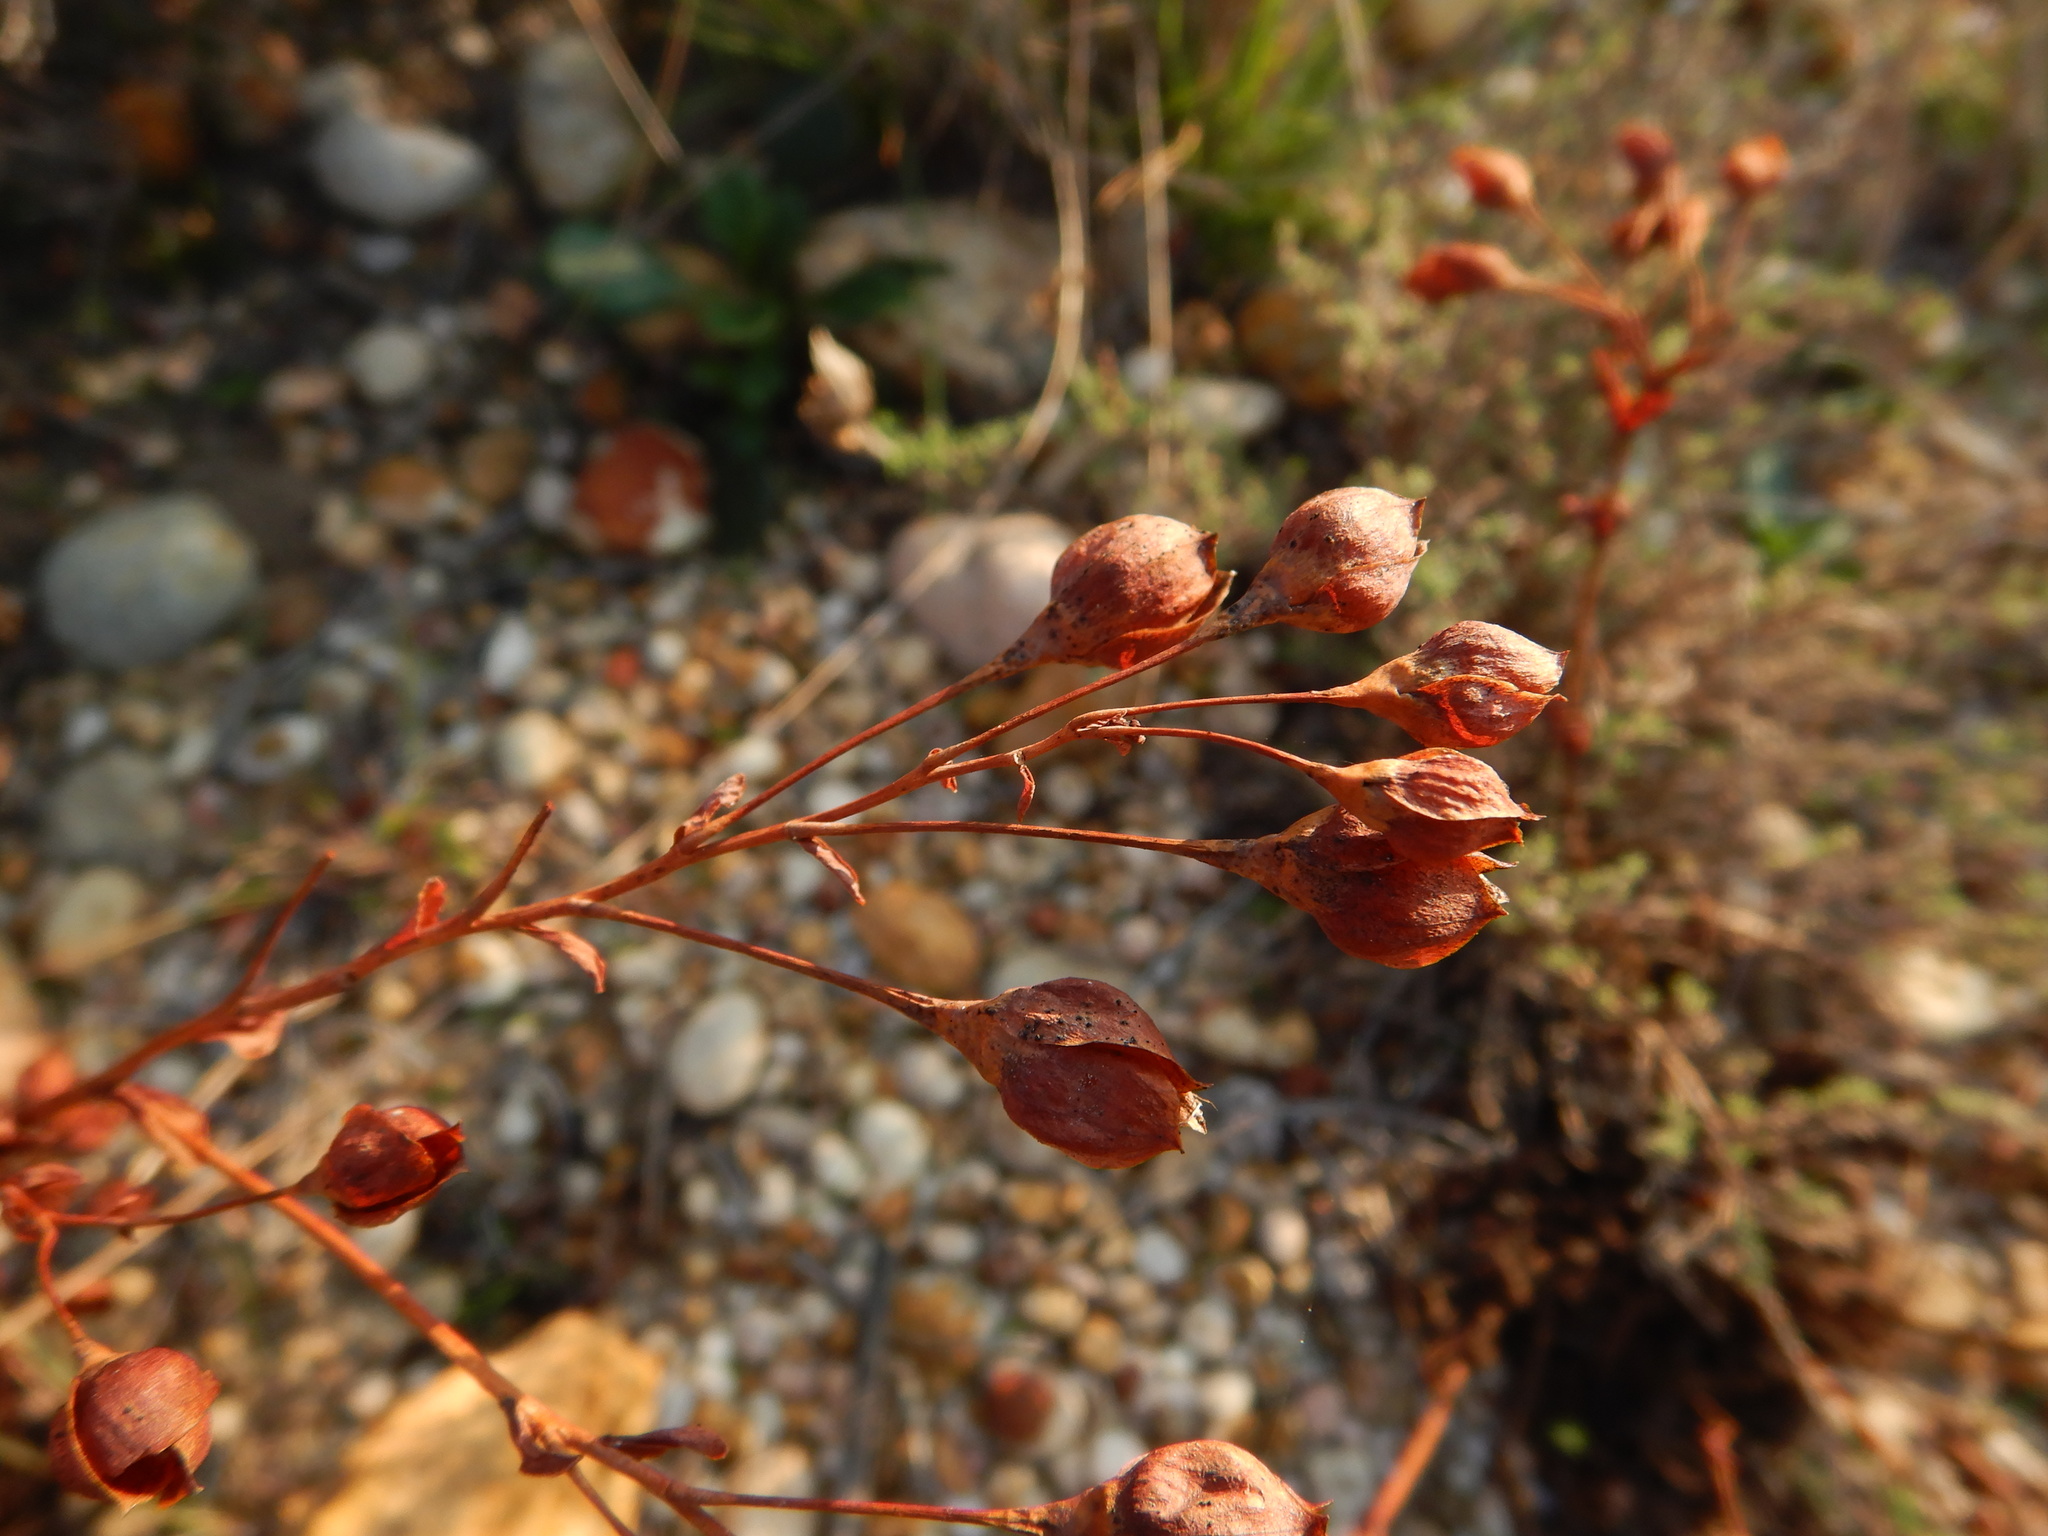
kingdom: Plantae
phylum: Tracheophyta
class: Magnoliopsida
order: Malvales
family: Cistaceae
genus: Tuberaria
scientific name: Tuberaria globulariifolia
